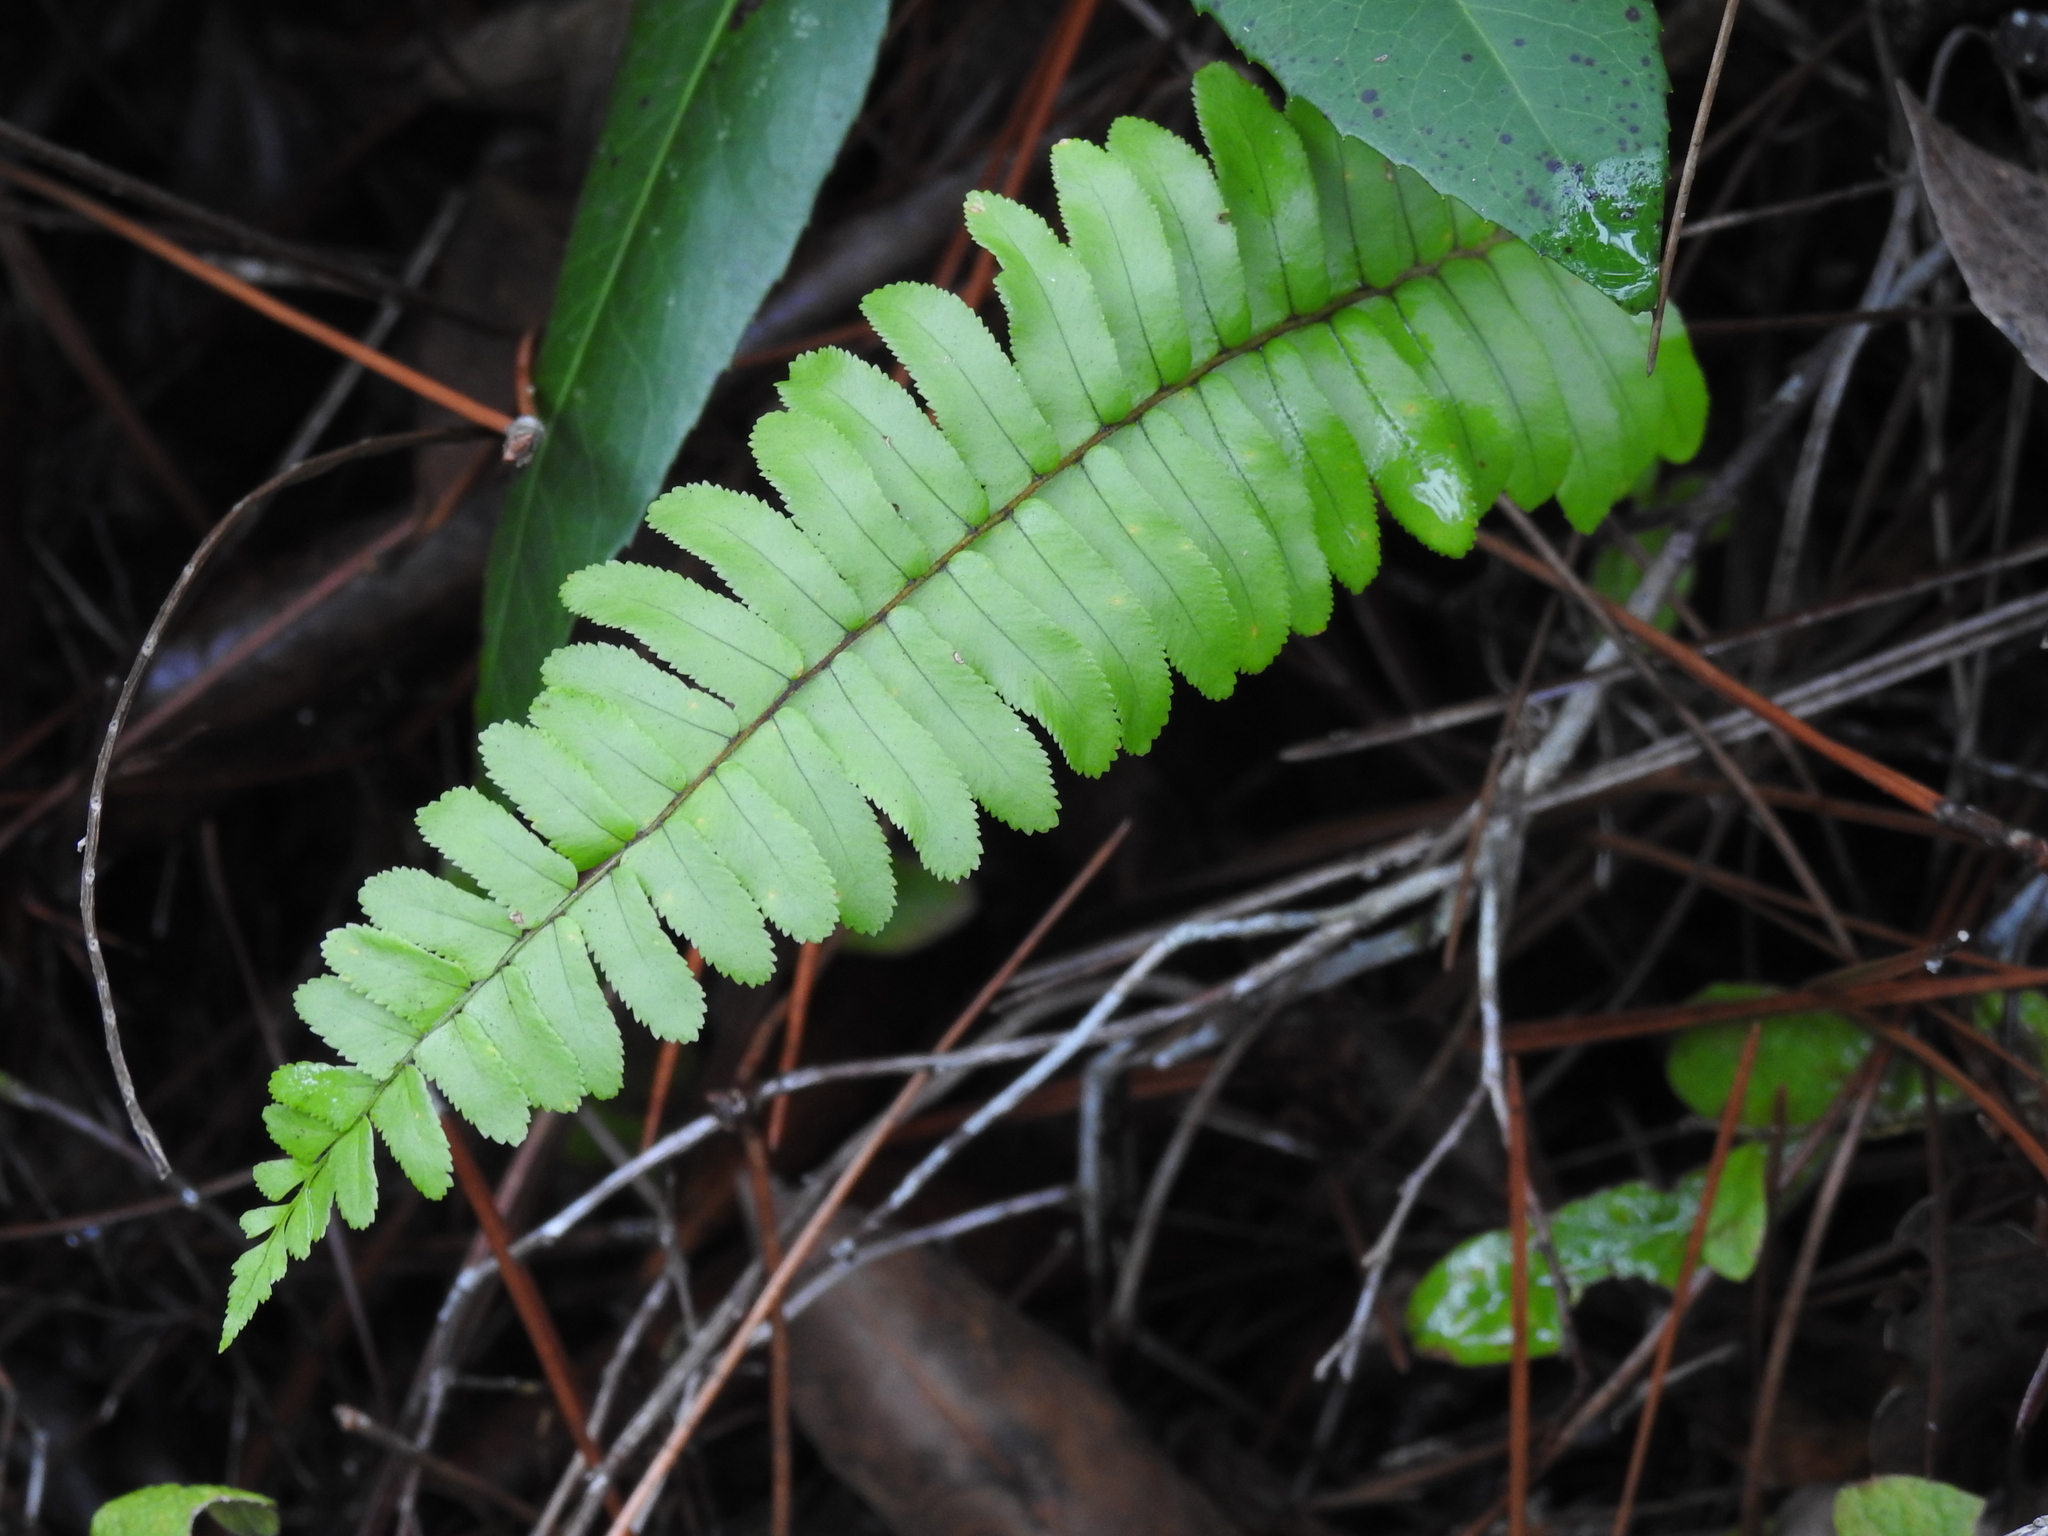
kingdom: Plantae
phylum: Tracheophyta
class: Polypodiopsida
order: Polypodiales
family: Nephrolepidaceae
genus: Nephrolepis
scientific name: Nephrolepis cordifolia
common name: Narrow swordfern
